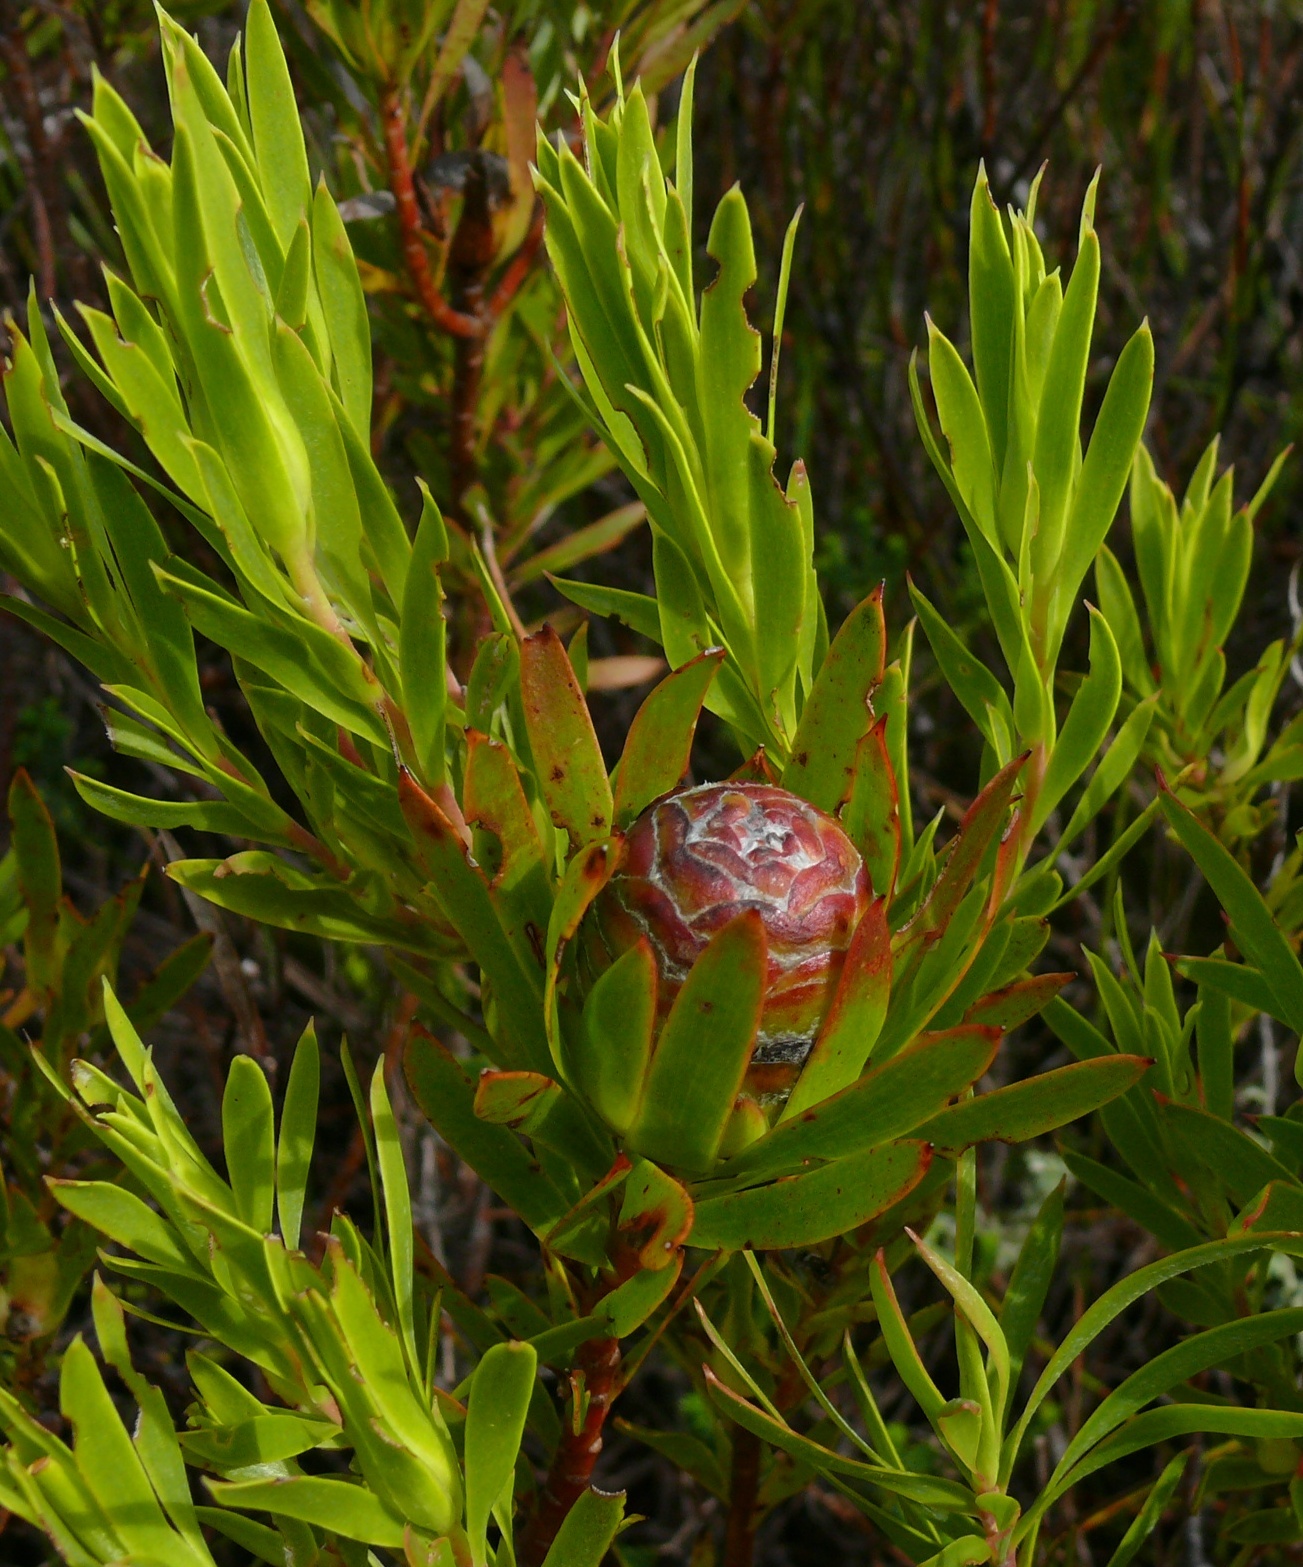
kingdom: Plantae
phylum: Tracheophyta
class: Magnoliopsida
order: Proteales
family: Proteaceae
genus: Leucadendron
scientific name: Leucadendron xanthoconus
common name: Sickle-leaf conebush
